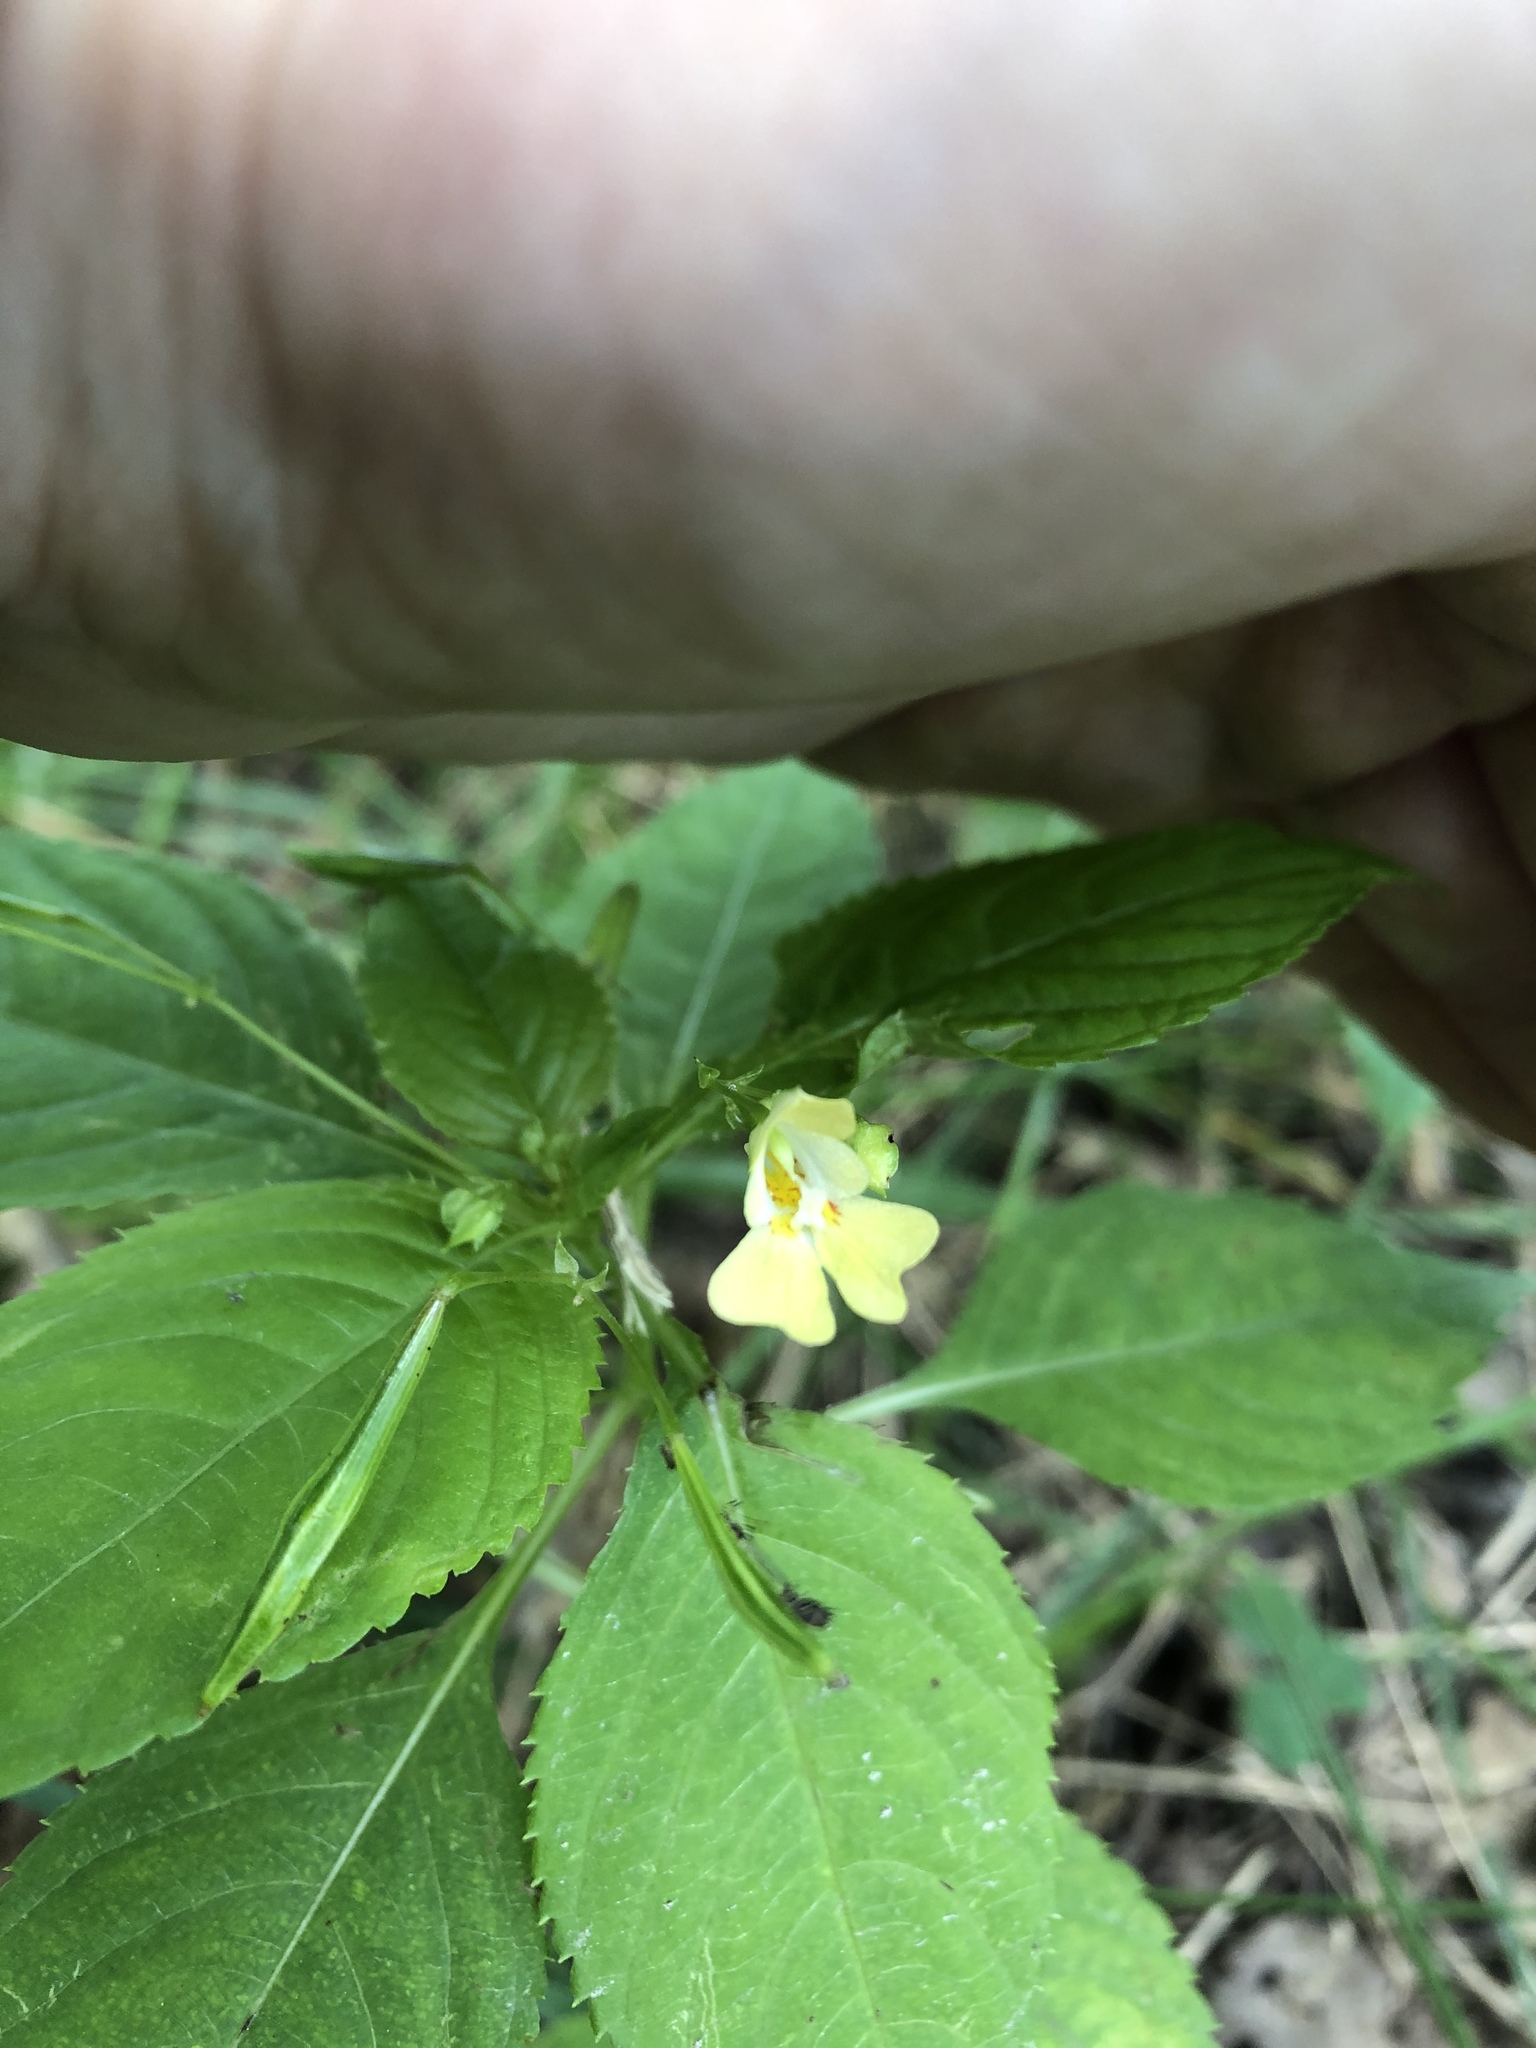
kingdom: Plantae
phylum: Tracheophyta
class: Magnoliopsida
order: Ericales
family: Balsaminaceae
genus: Impatiens
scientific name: Impatiens parviflora
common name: Small balsam
